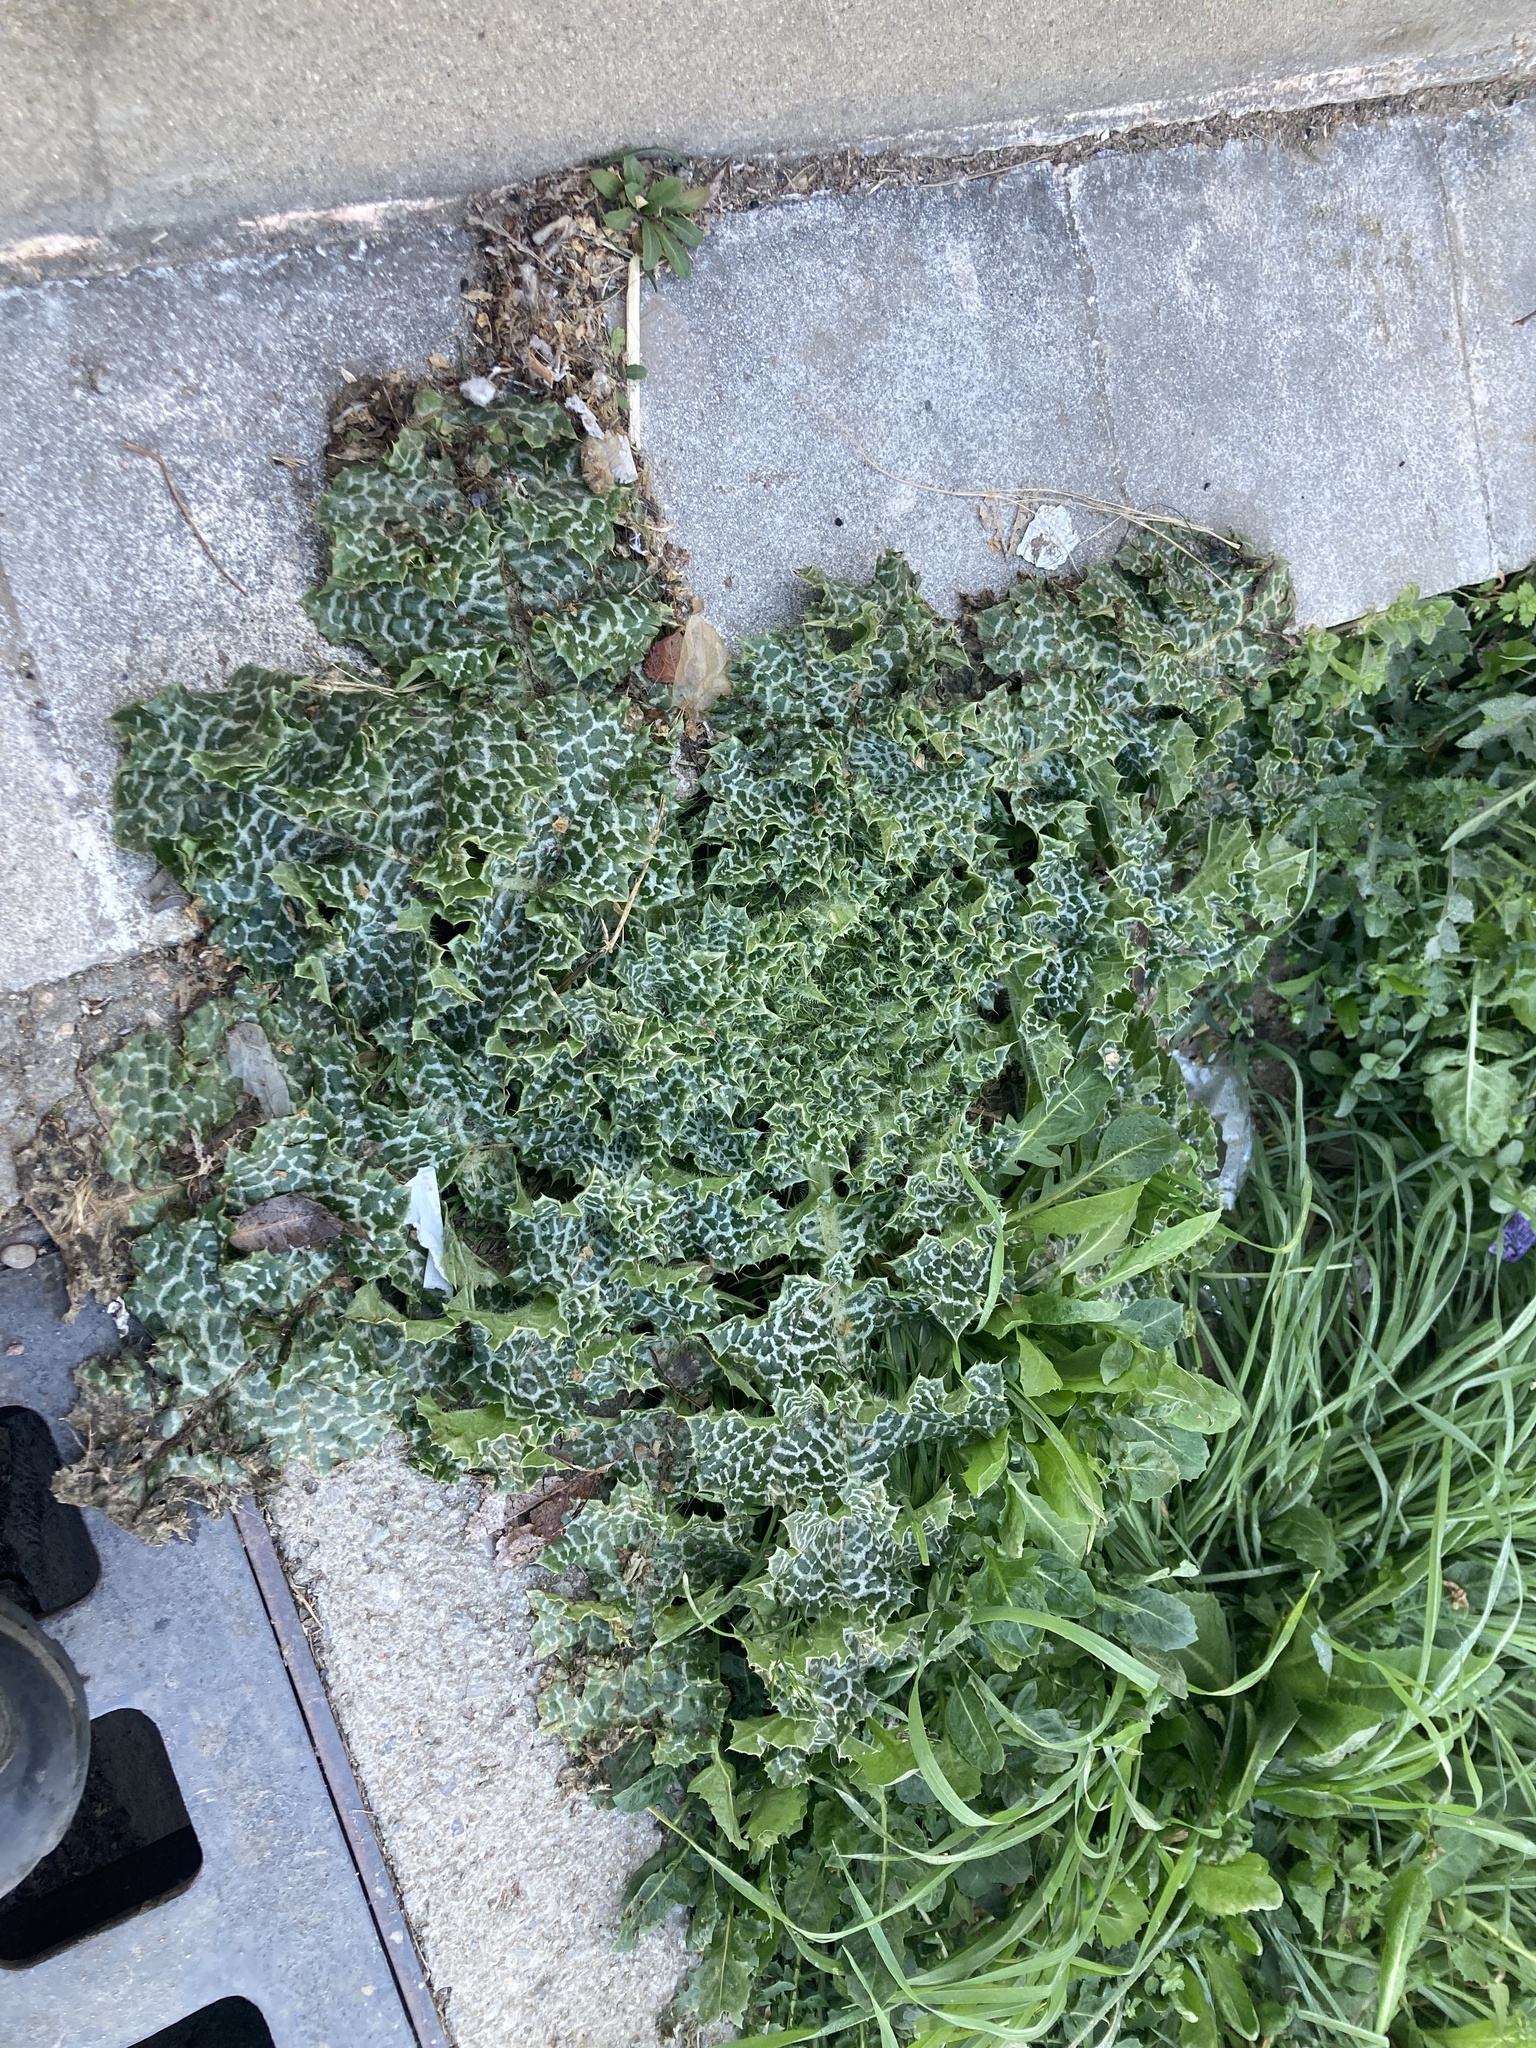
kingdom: Plantae
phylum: Tracheophyta
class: Magnoliopsida
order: Asterales
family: Asteraceae
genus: Silybum
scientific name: Silybum marianum
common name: Milk thistle
